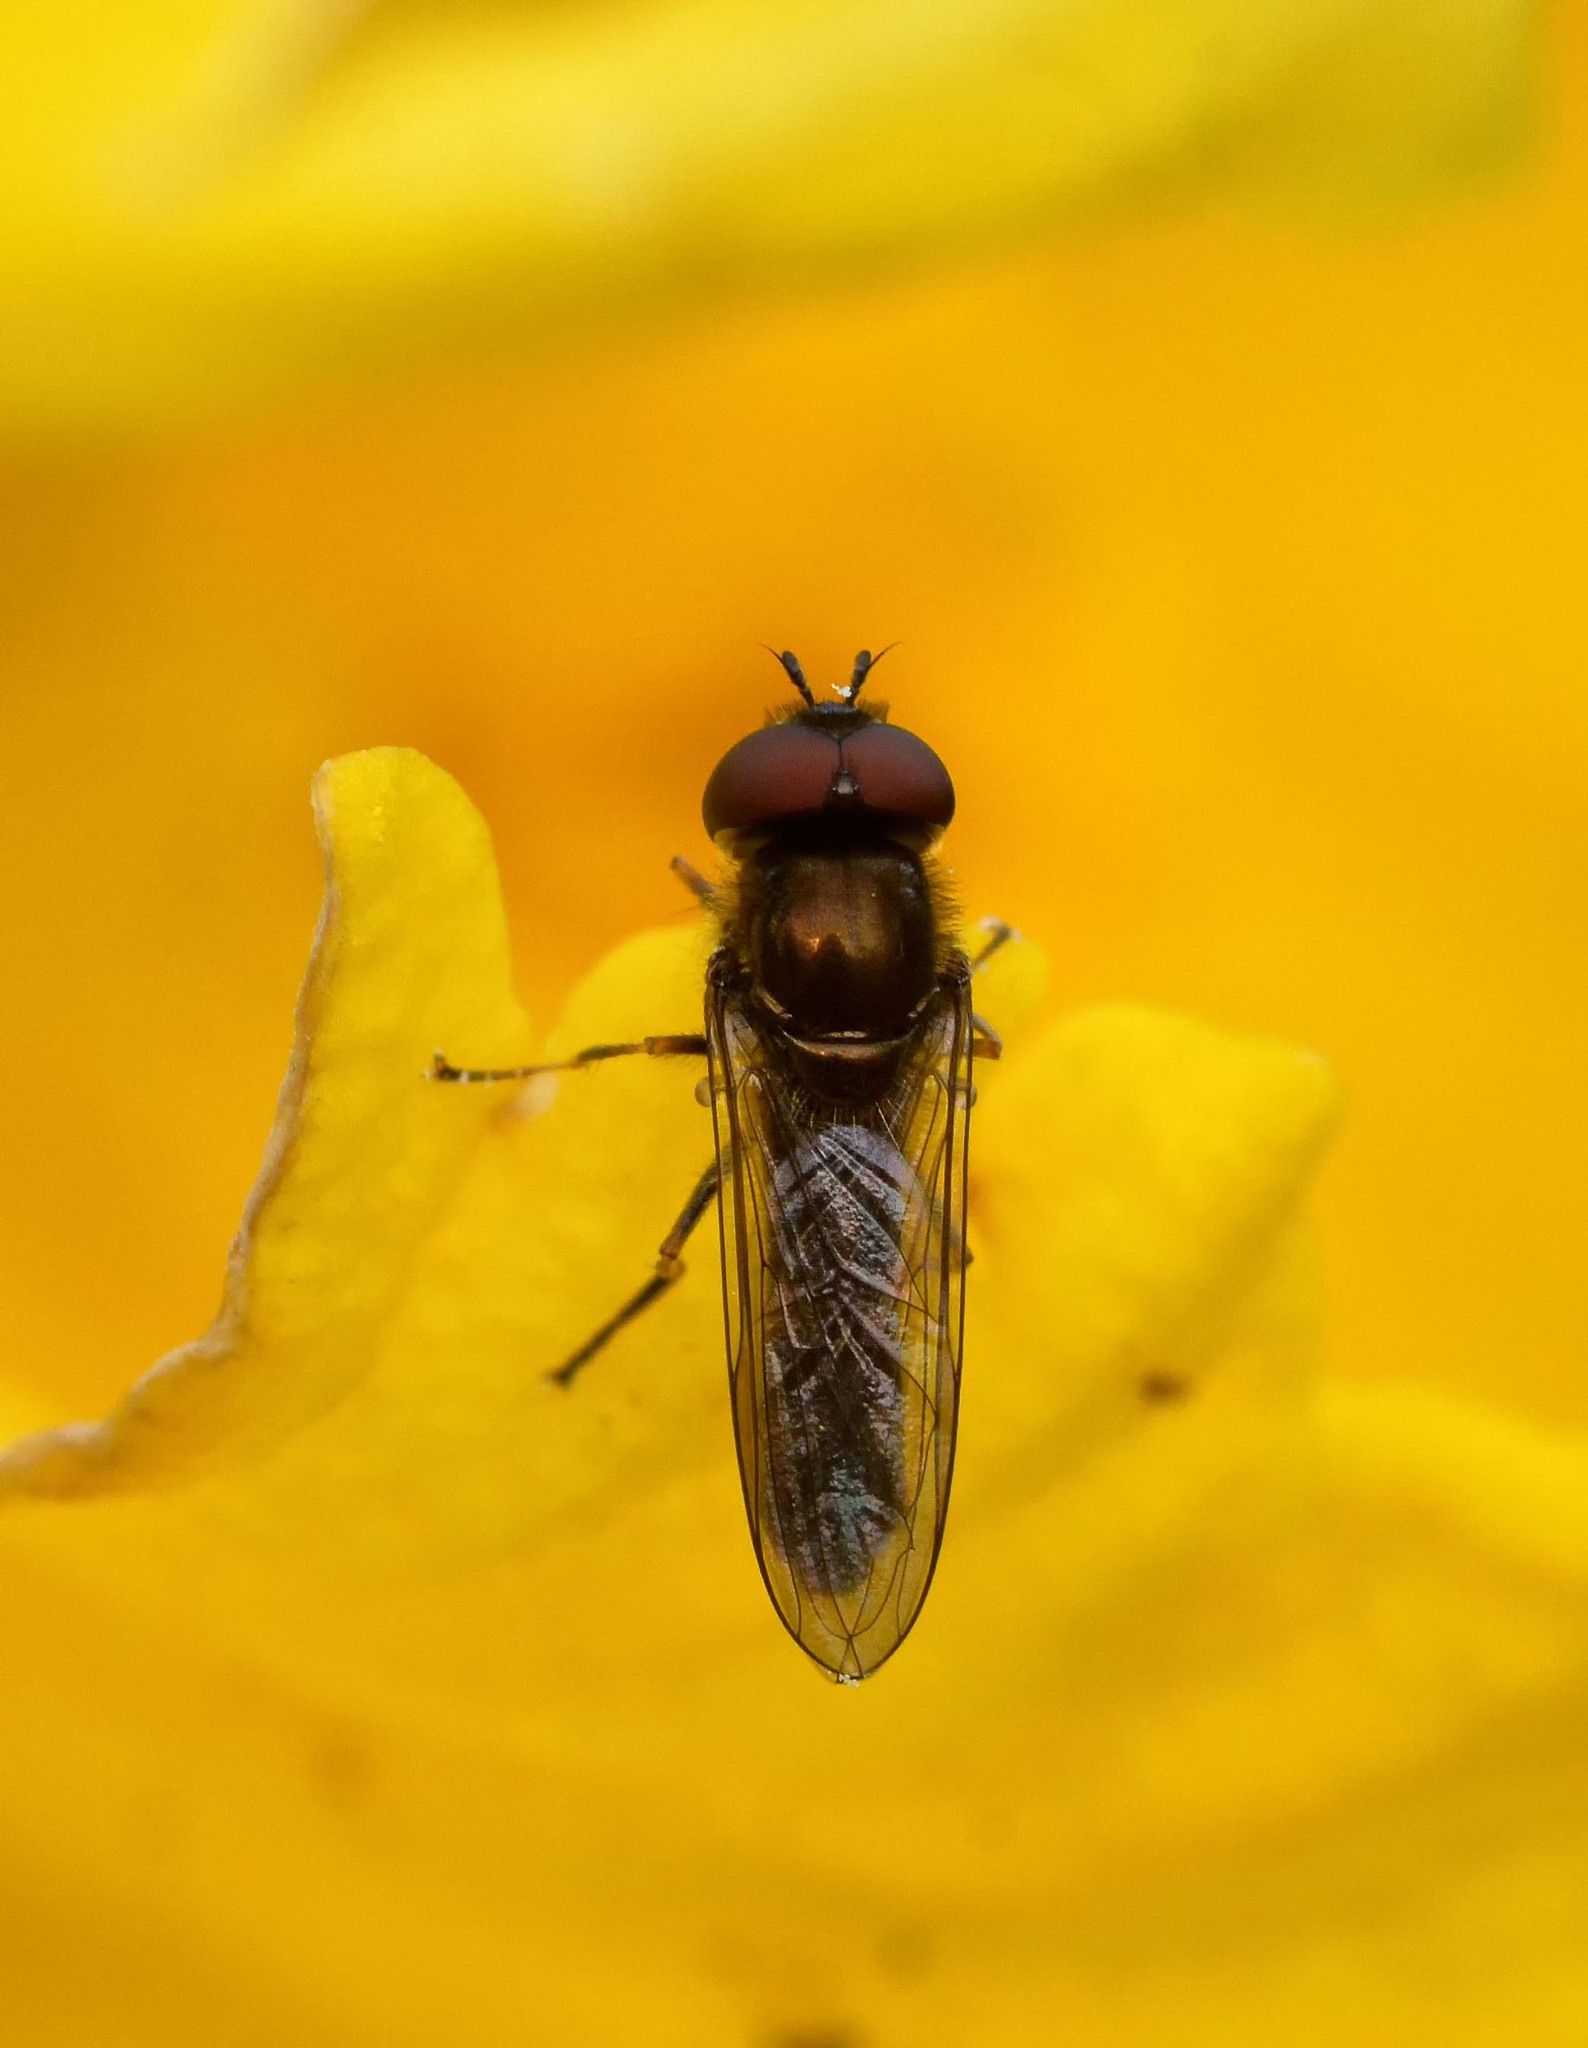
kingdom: Animalia
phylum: Arthropoda
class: Insecta
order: Diptera
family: Syrphidae
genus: Platycheirus
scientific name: Platycheirus albimanus
